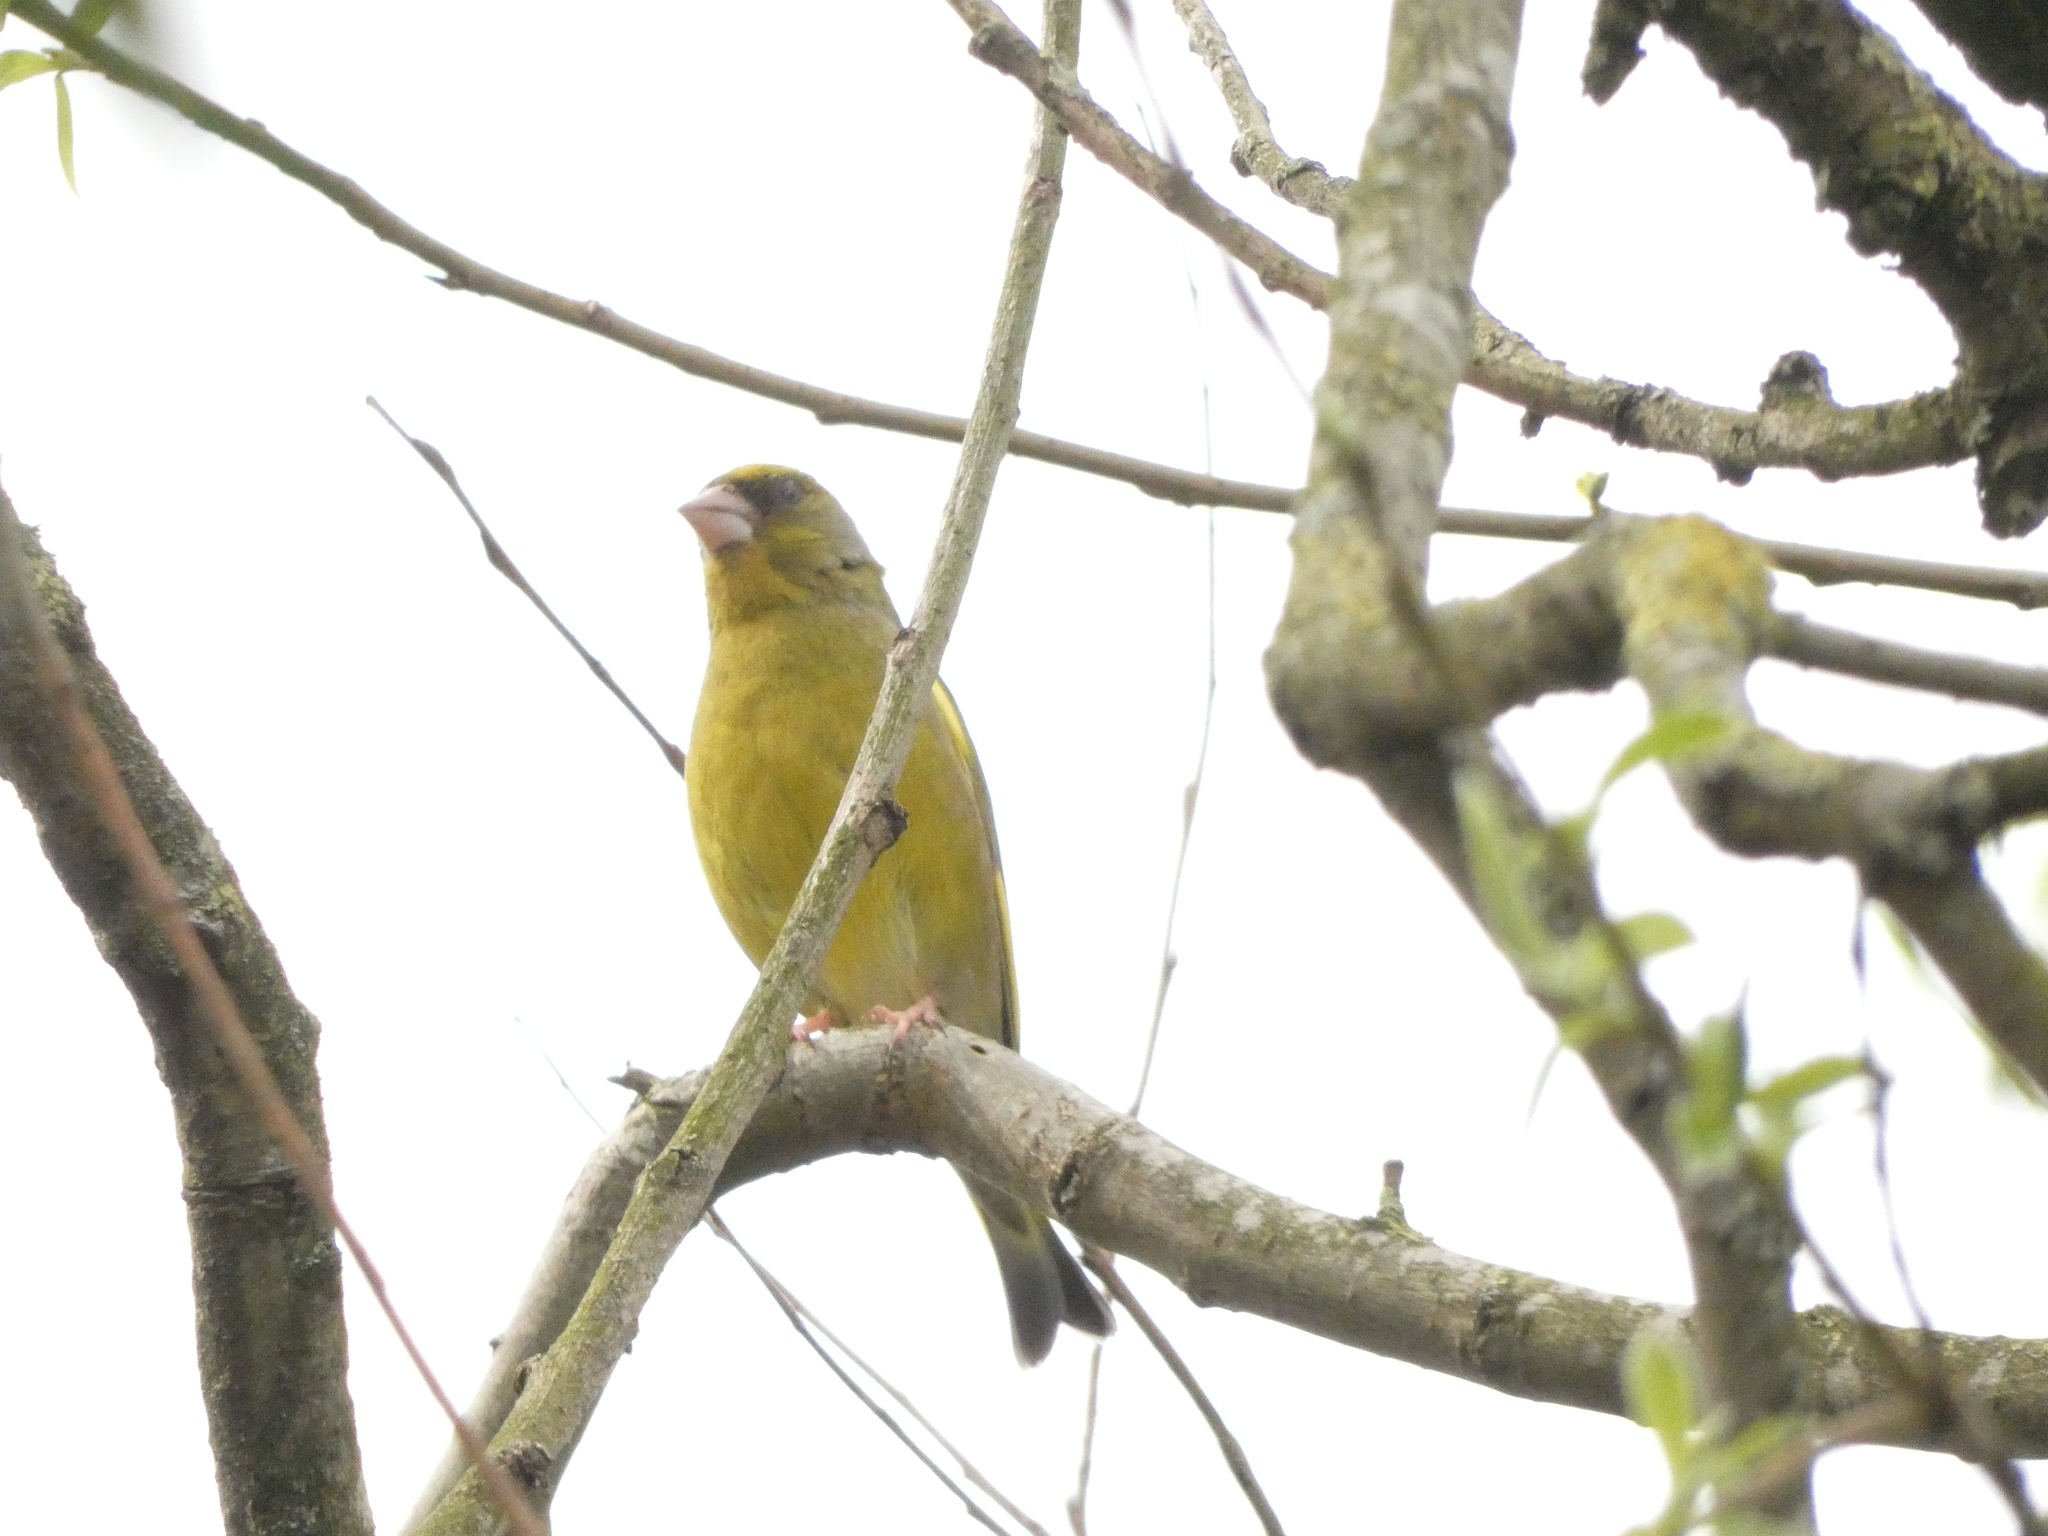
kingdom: Plantae
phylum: Tracheophyta
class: Liliopsida
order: Poales
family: Poaceae
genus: Chloris
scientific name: Chloris chloris
